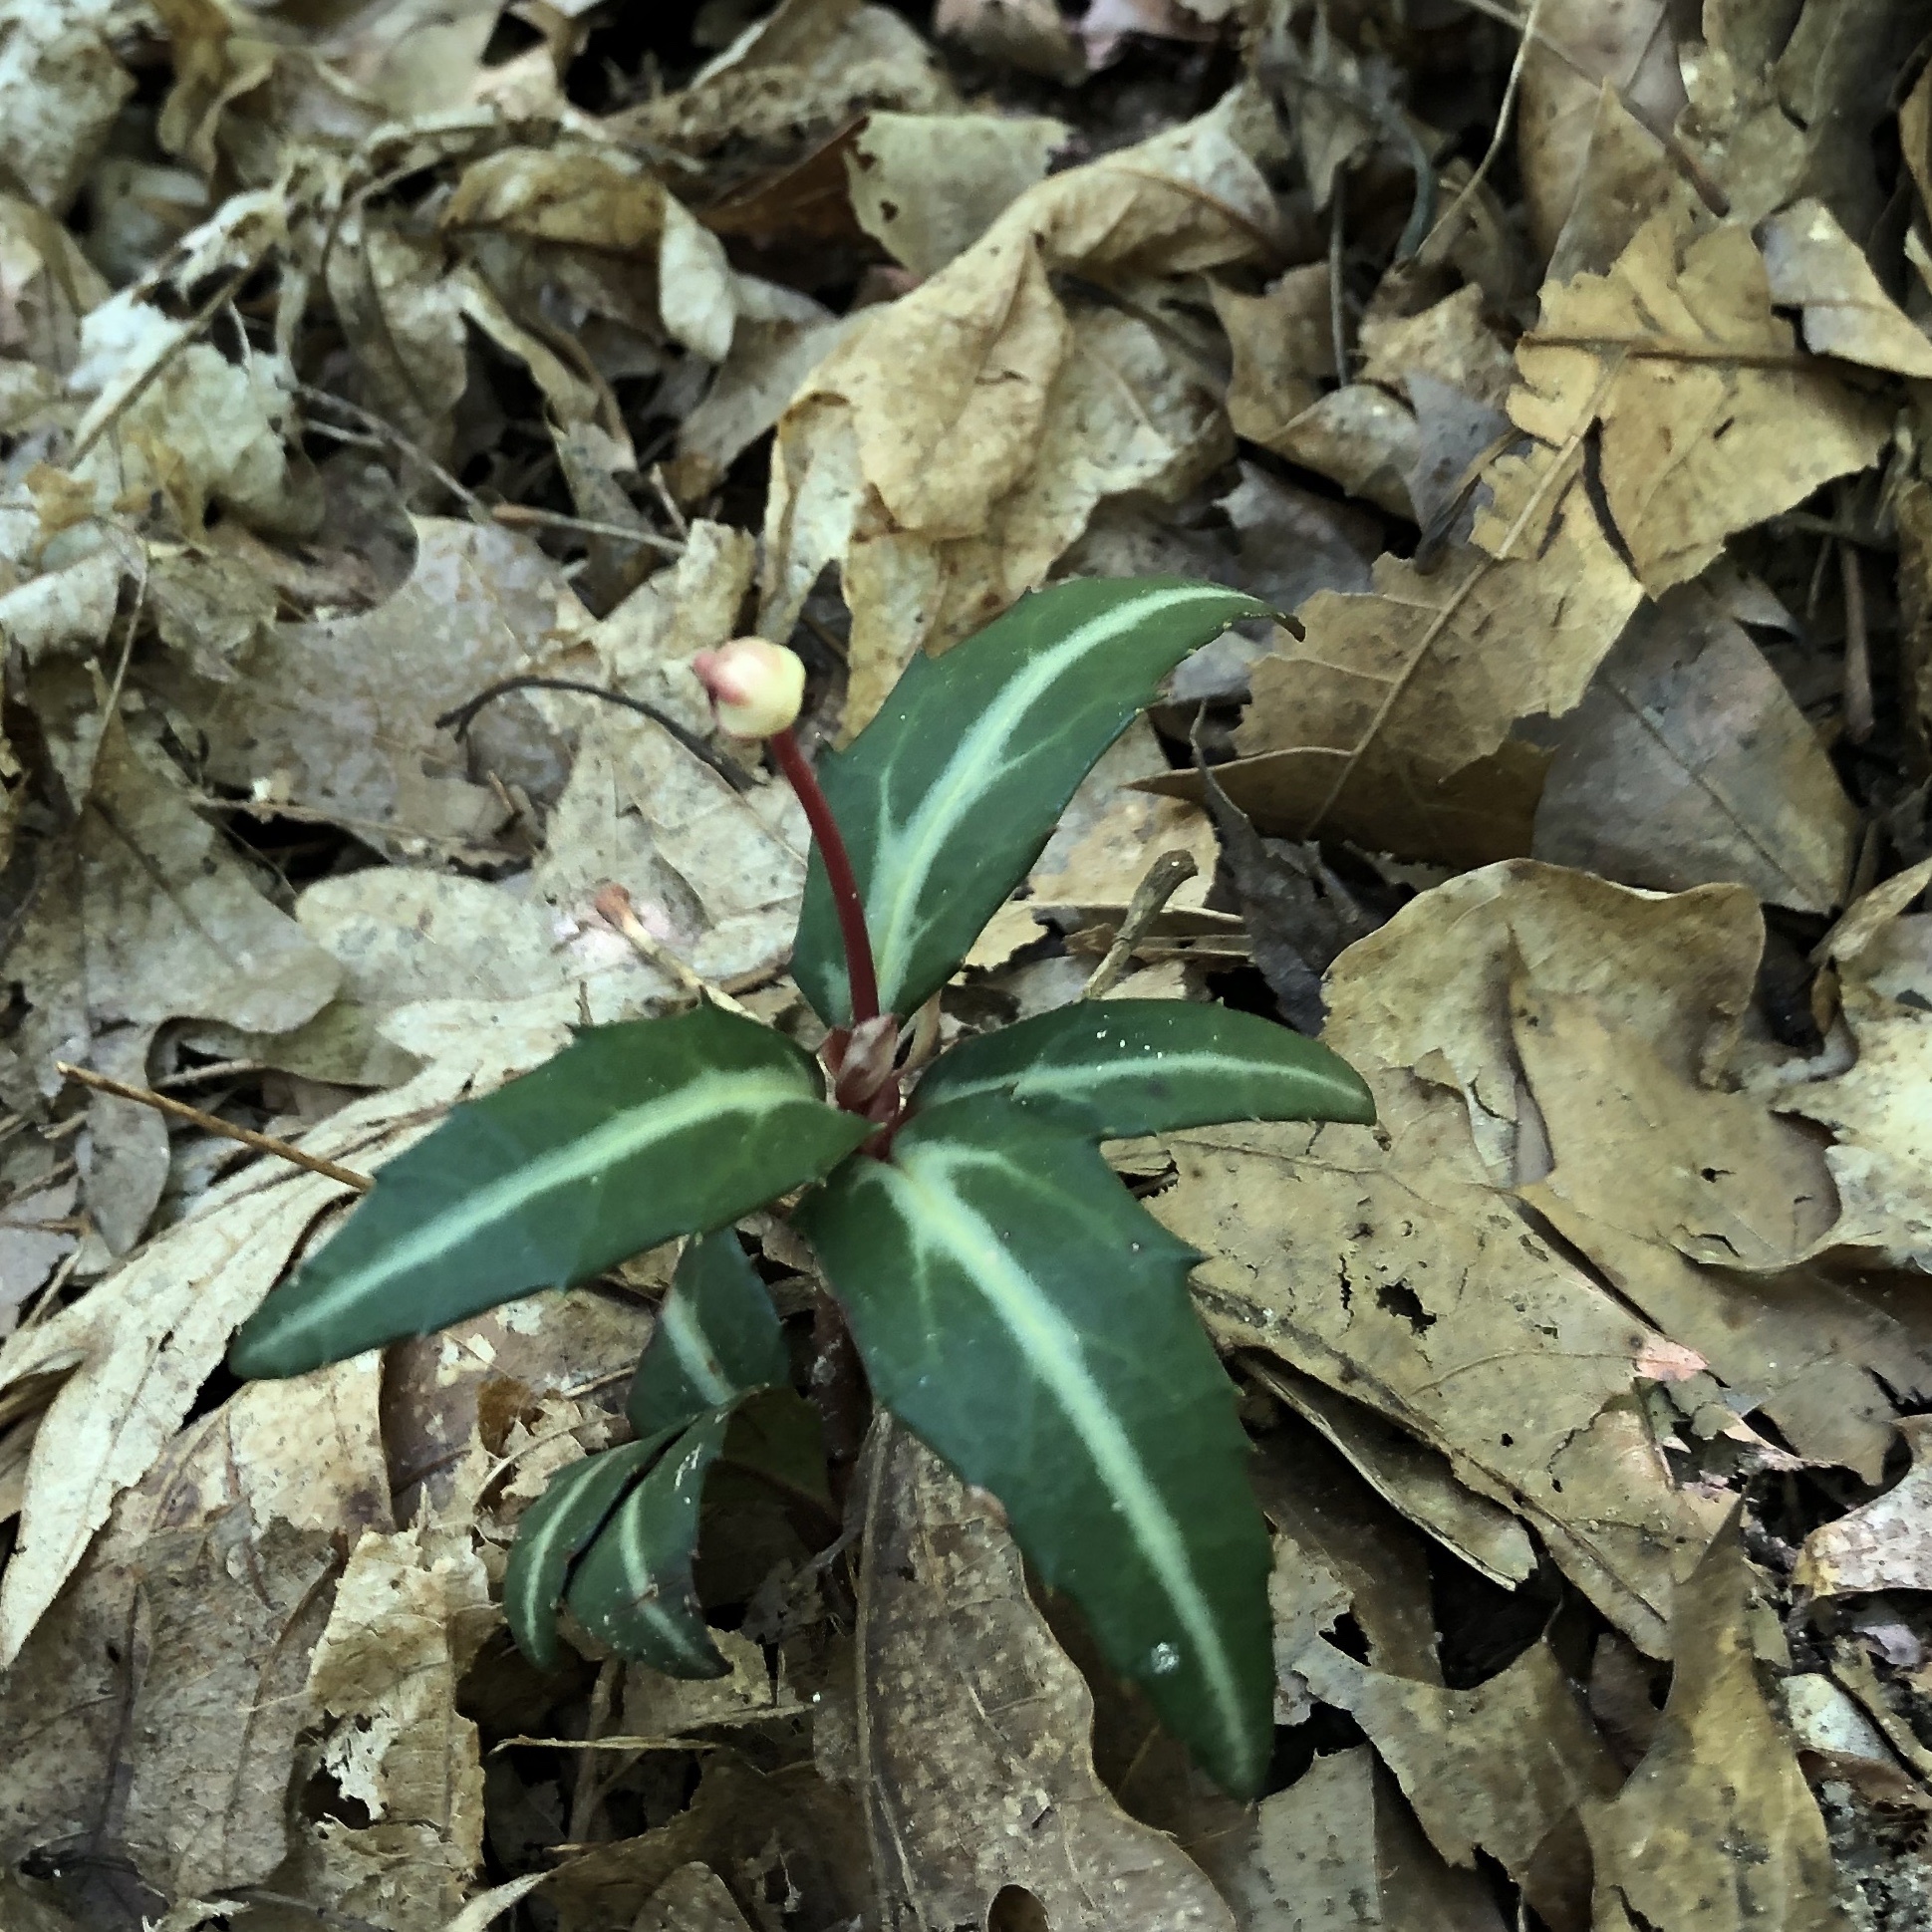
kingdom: Plantae
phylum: Tracheophyta
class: Magnoliopsida
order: Ericales
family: Ericaceae
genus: Chimaphila
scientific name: Chimaphila maculata
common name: Spotted pipsissewa
